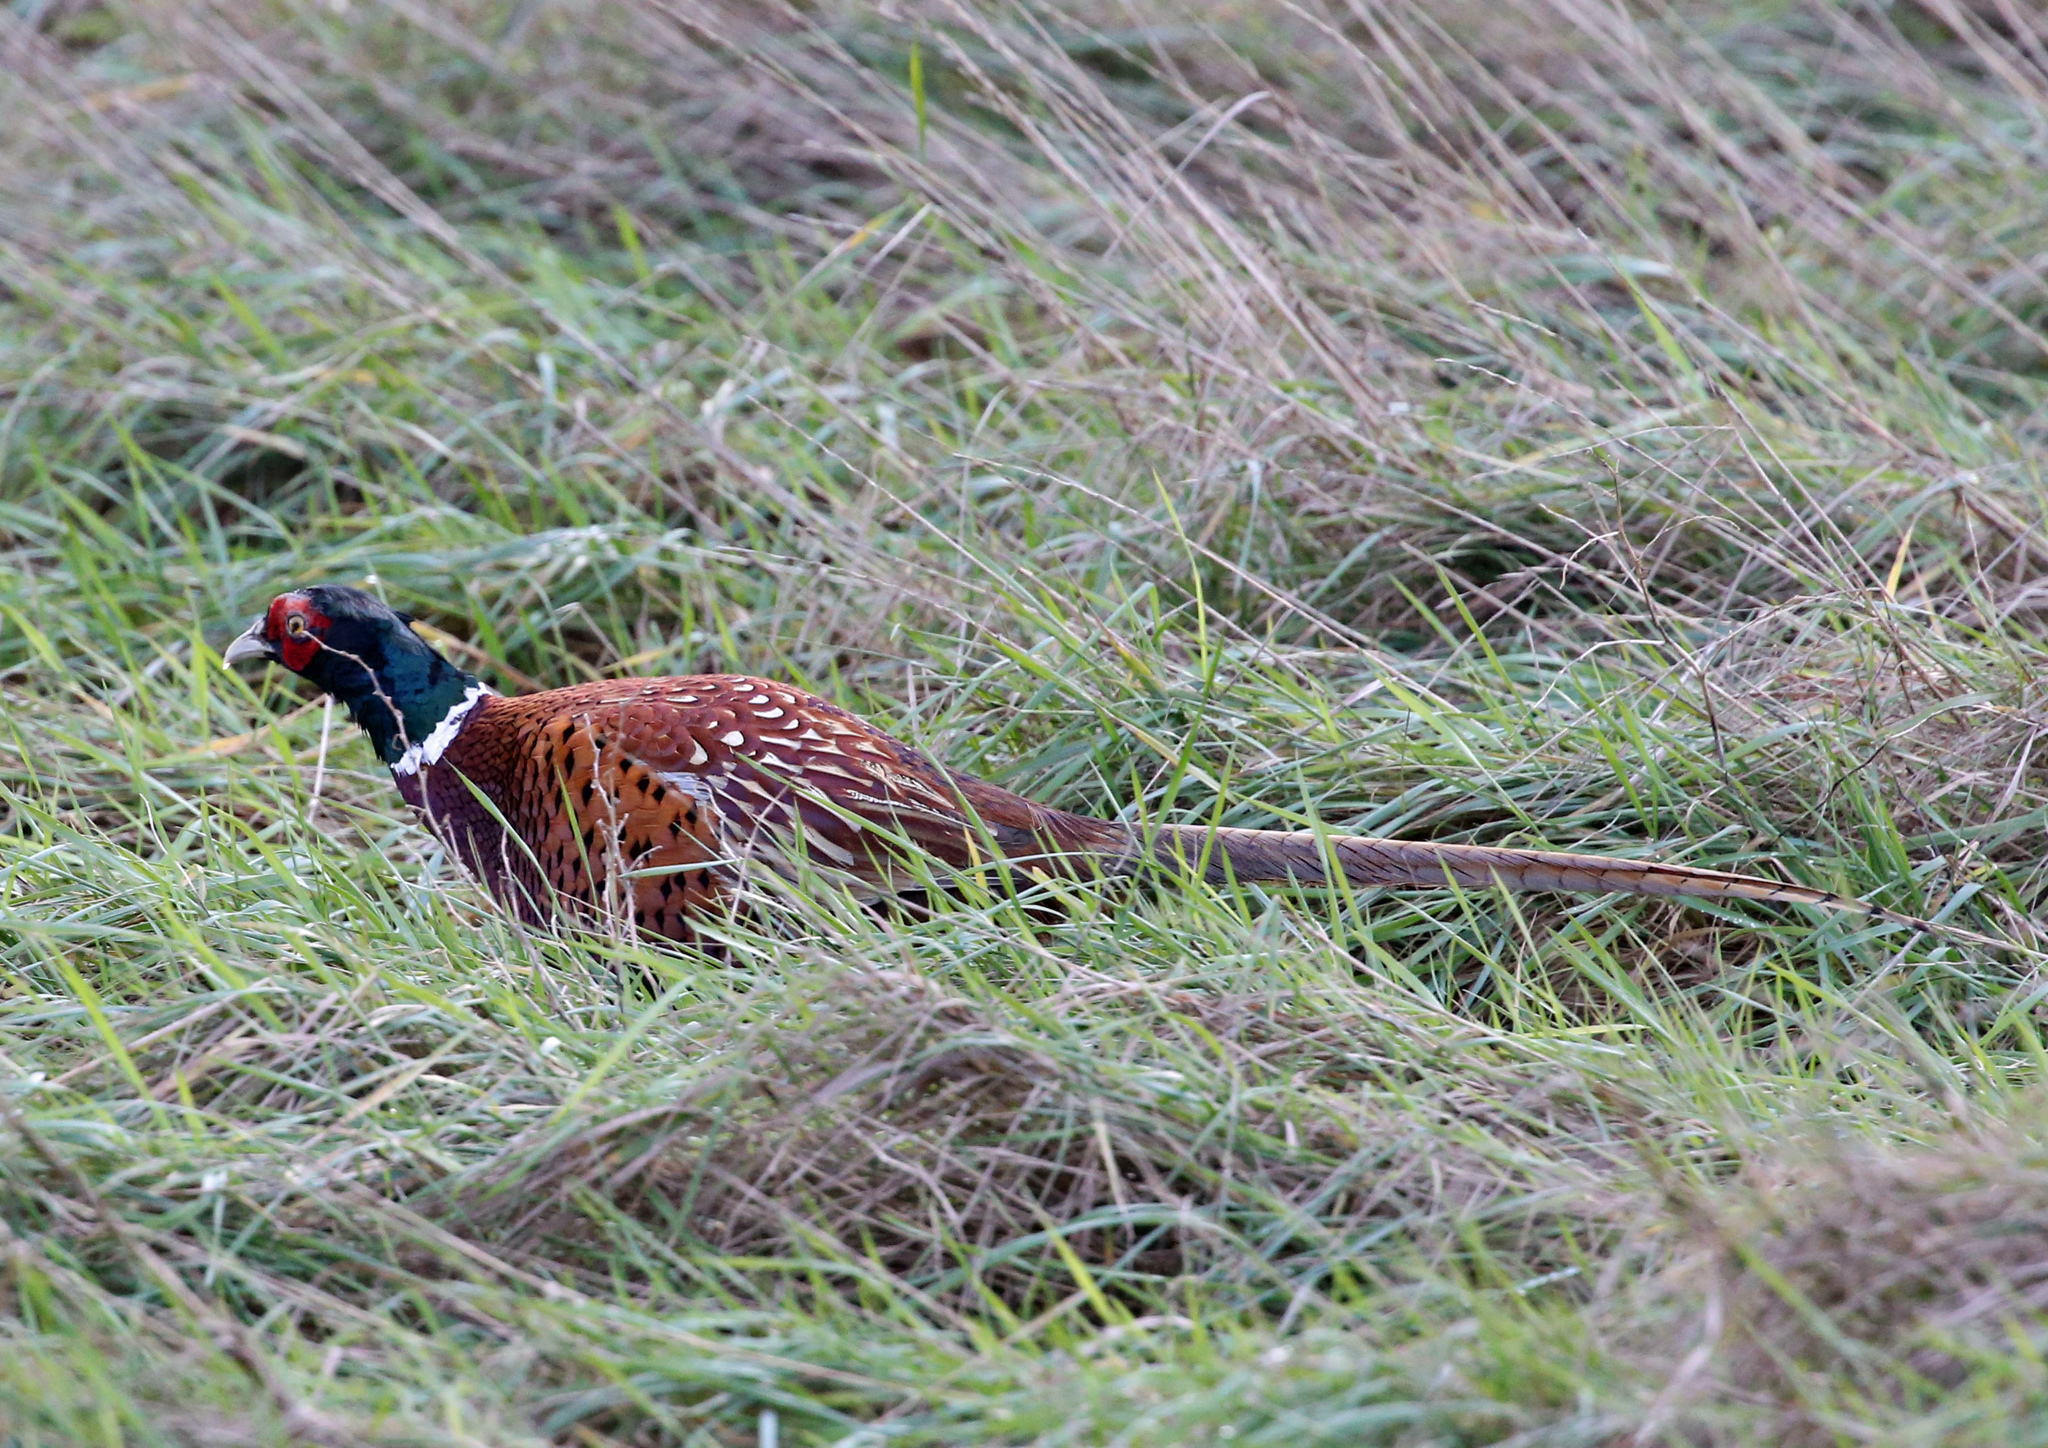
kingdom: Animalia
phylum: Chordata
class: Aves
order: Galliformes
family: Phasianidae
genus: Phasianus
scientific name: Phasianus colchicus
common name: Common pheasant
